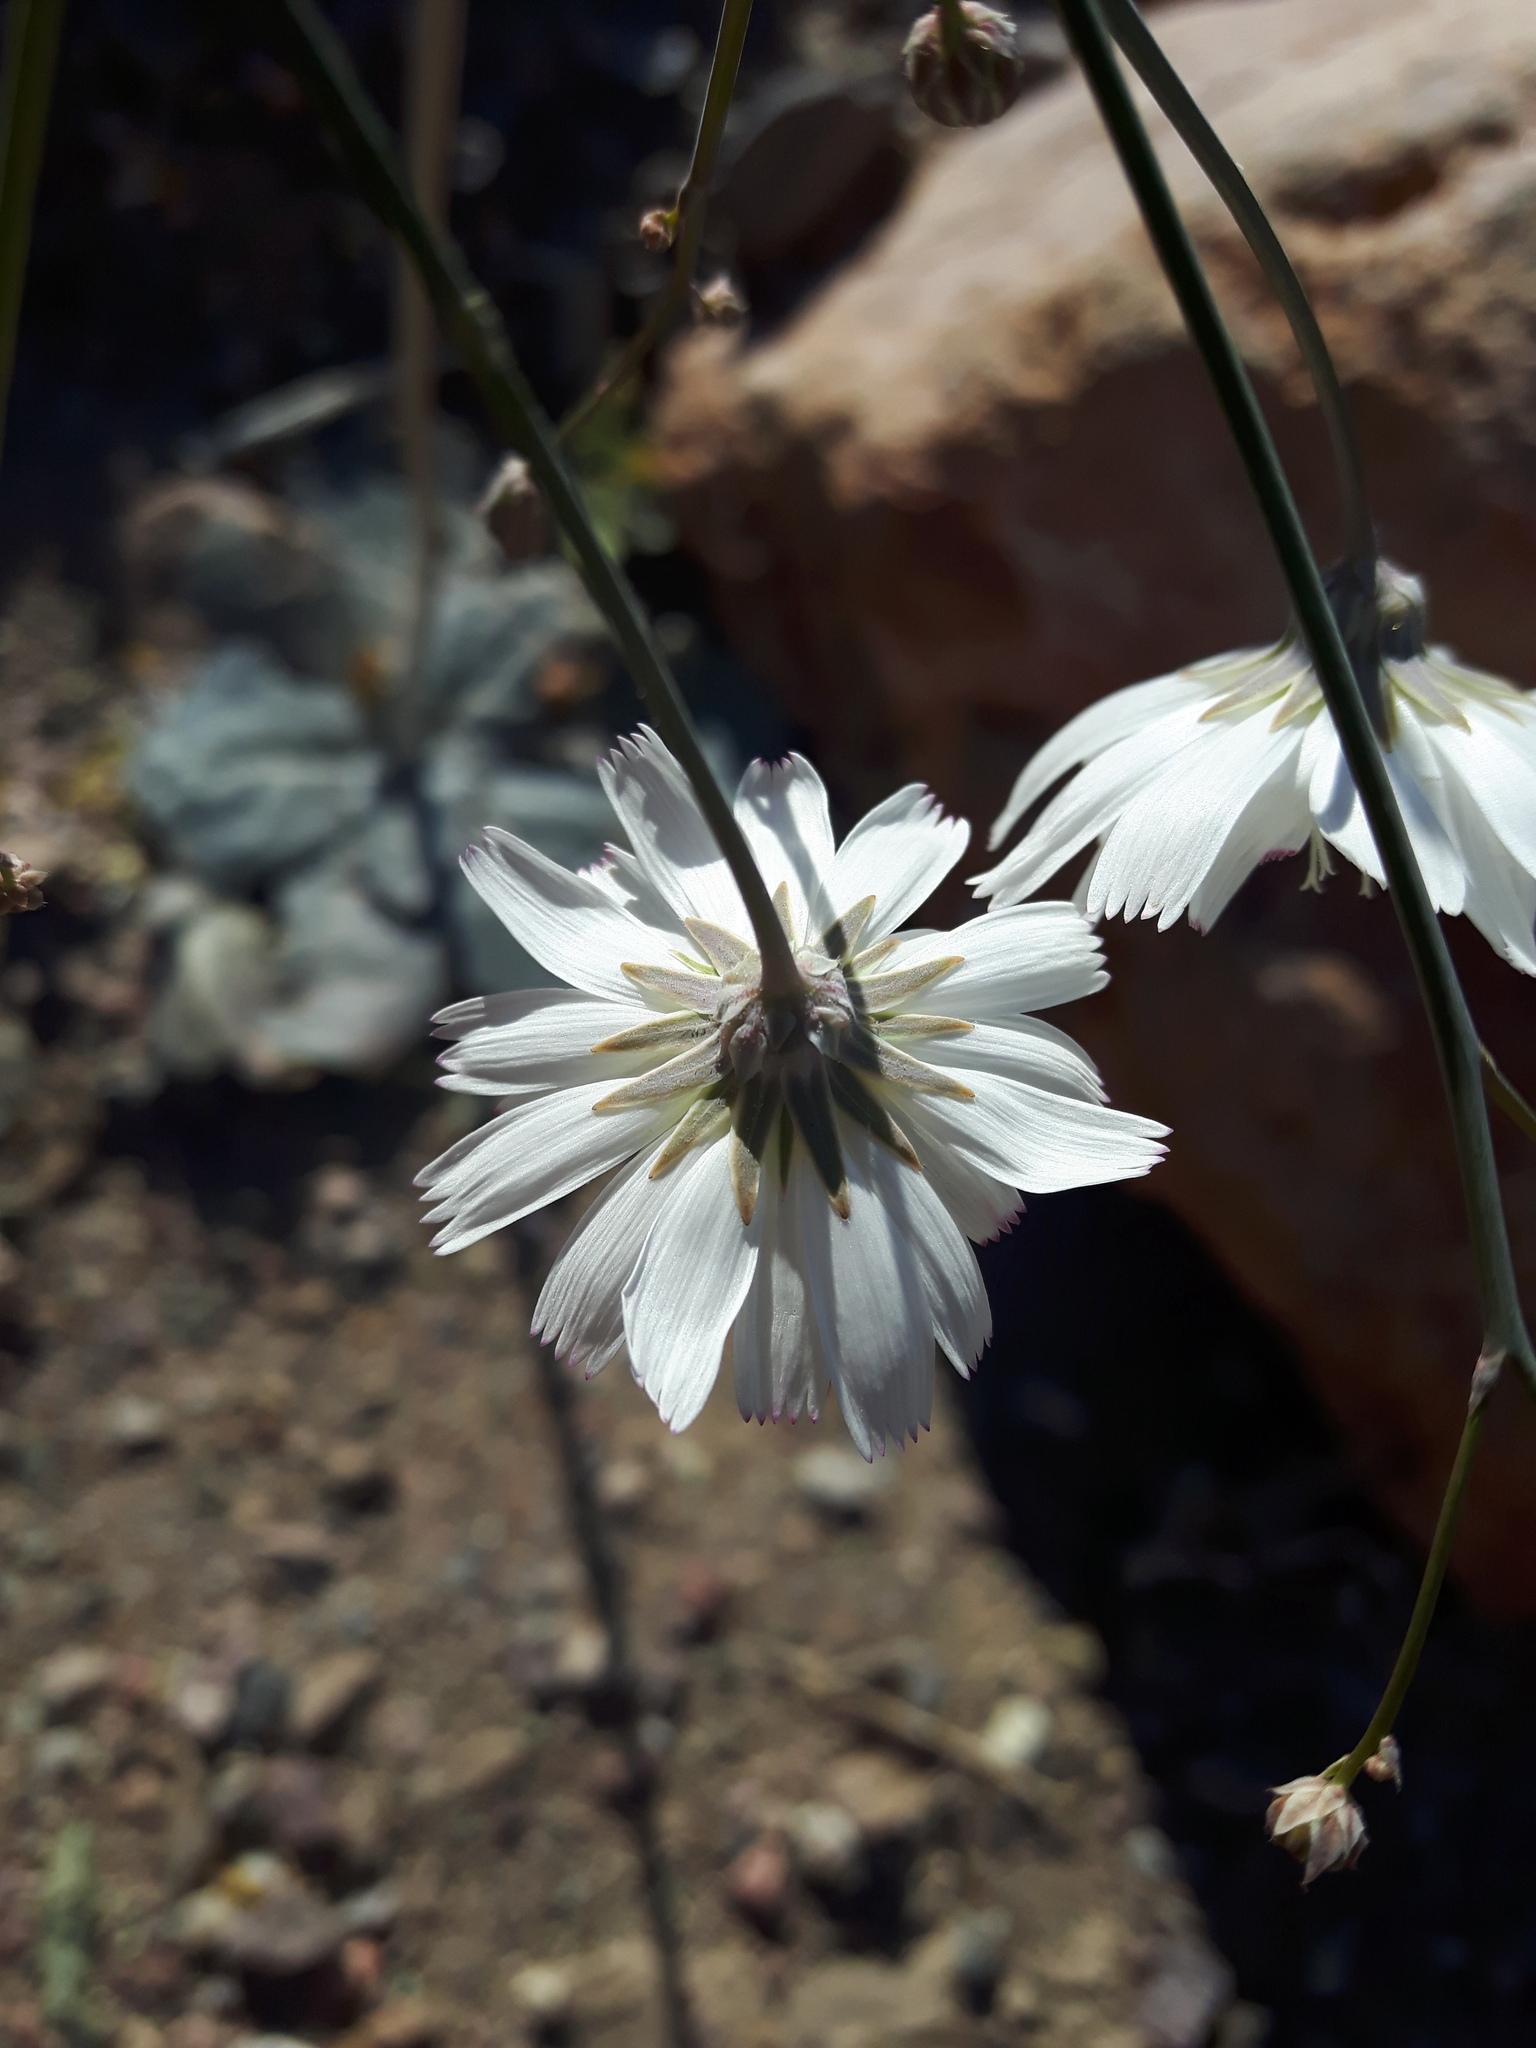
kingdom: Plantae
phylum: Tracheophyta
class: Magnoliopsida
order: Asterales
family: Asteraceae
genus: Atrichoseris
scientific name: Atrichoseris platyphylla
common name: Tobaccoweed
